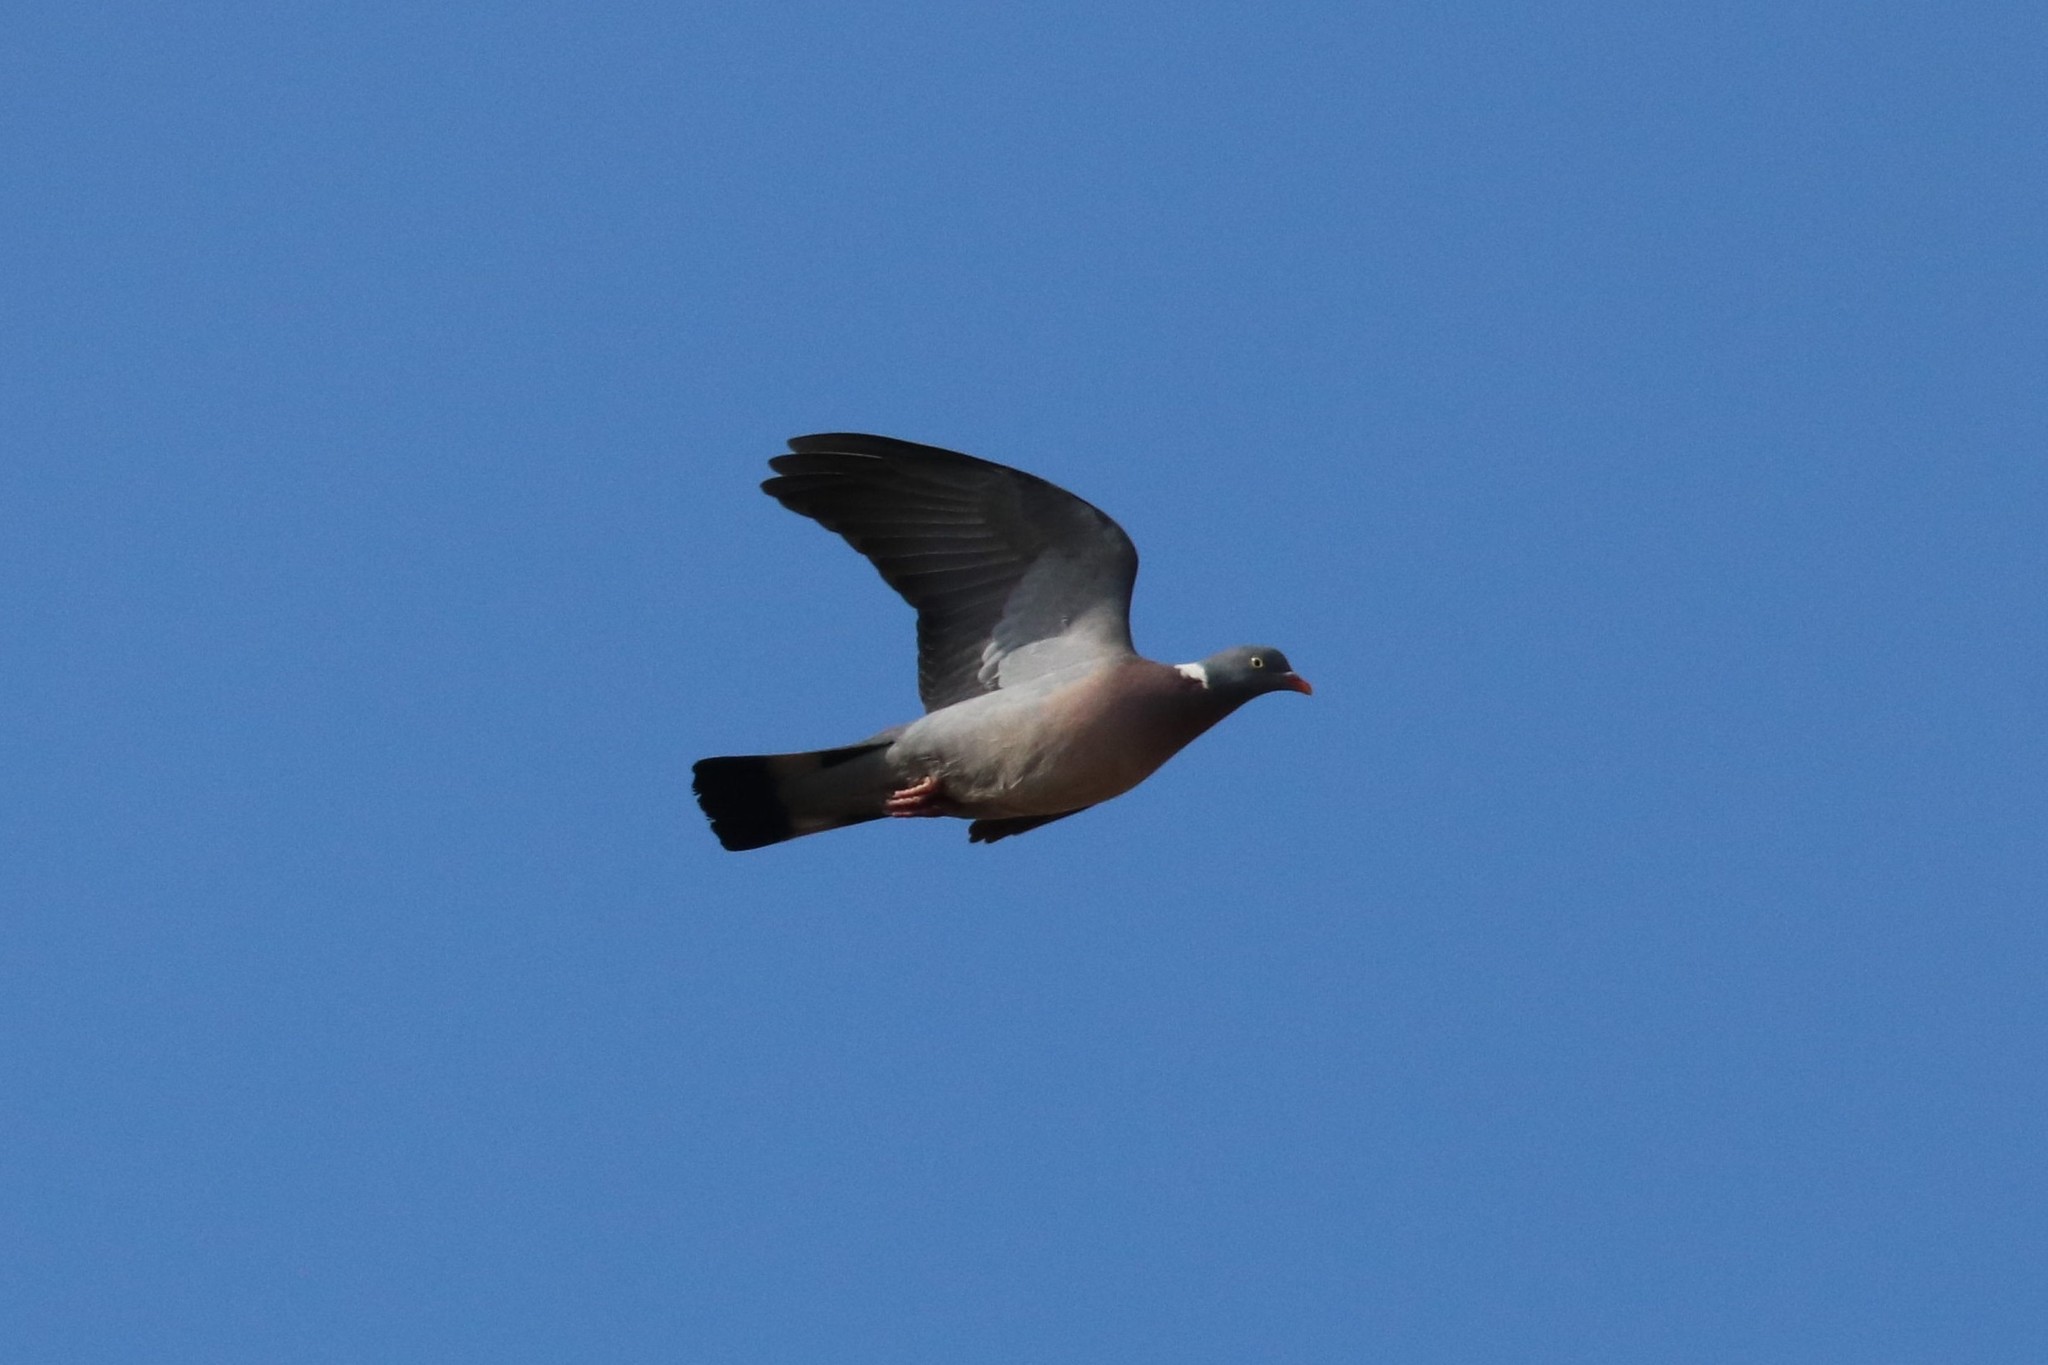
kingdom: Animalia
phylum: Chordata
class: Aves
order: Columbiformes
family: Columbidae
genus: Columba
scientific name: Columba palumbus
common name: Common wood pigeon
